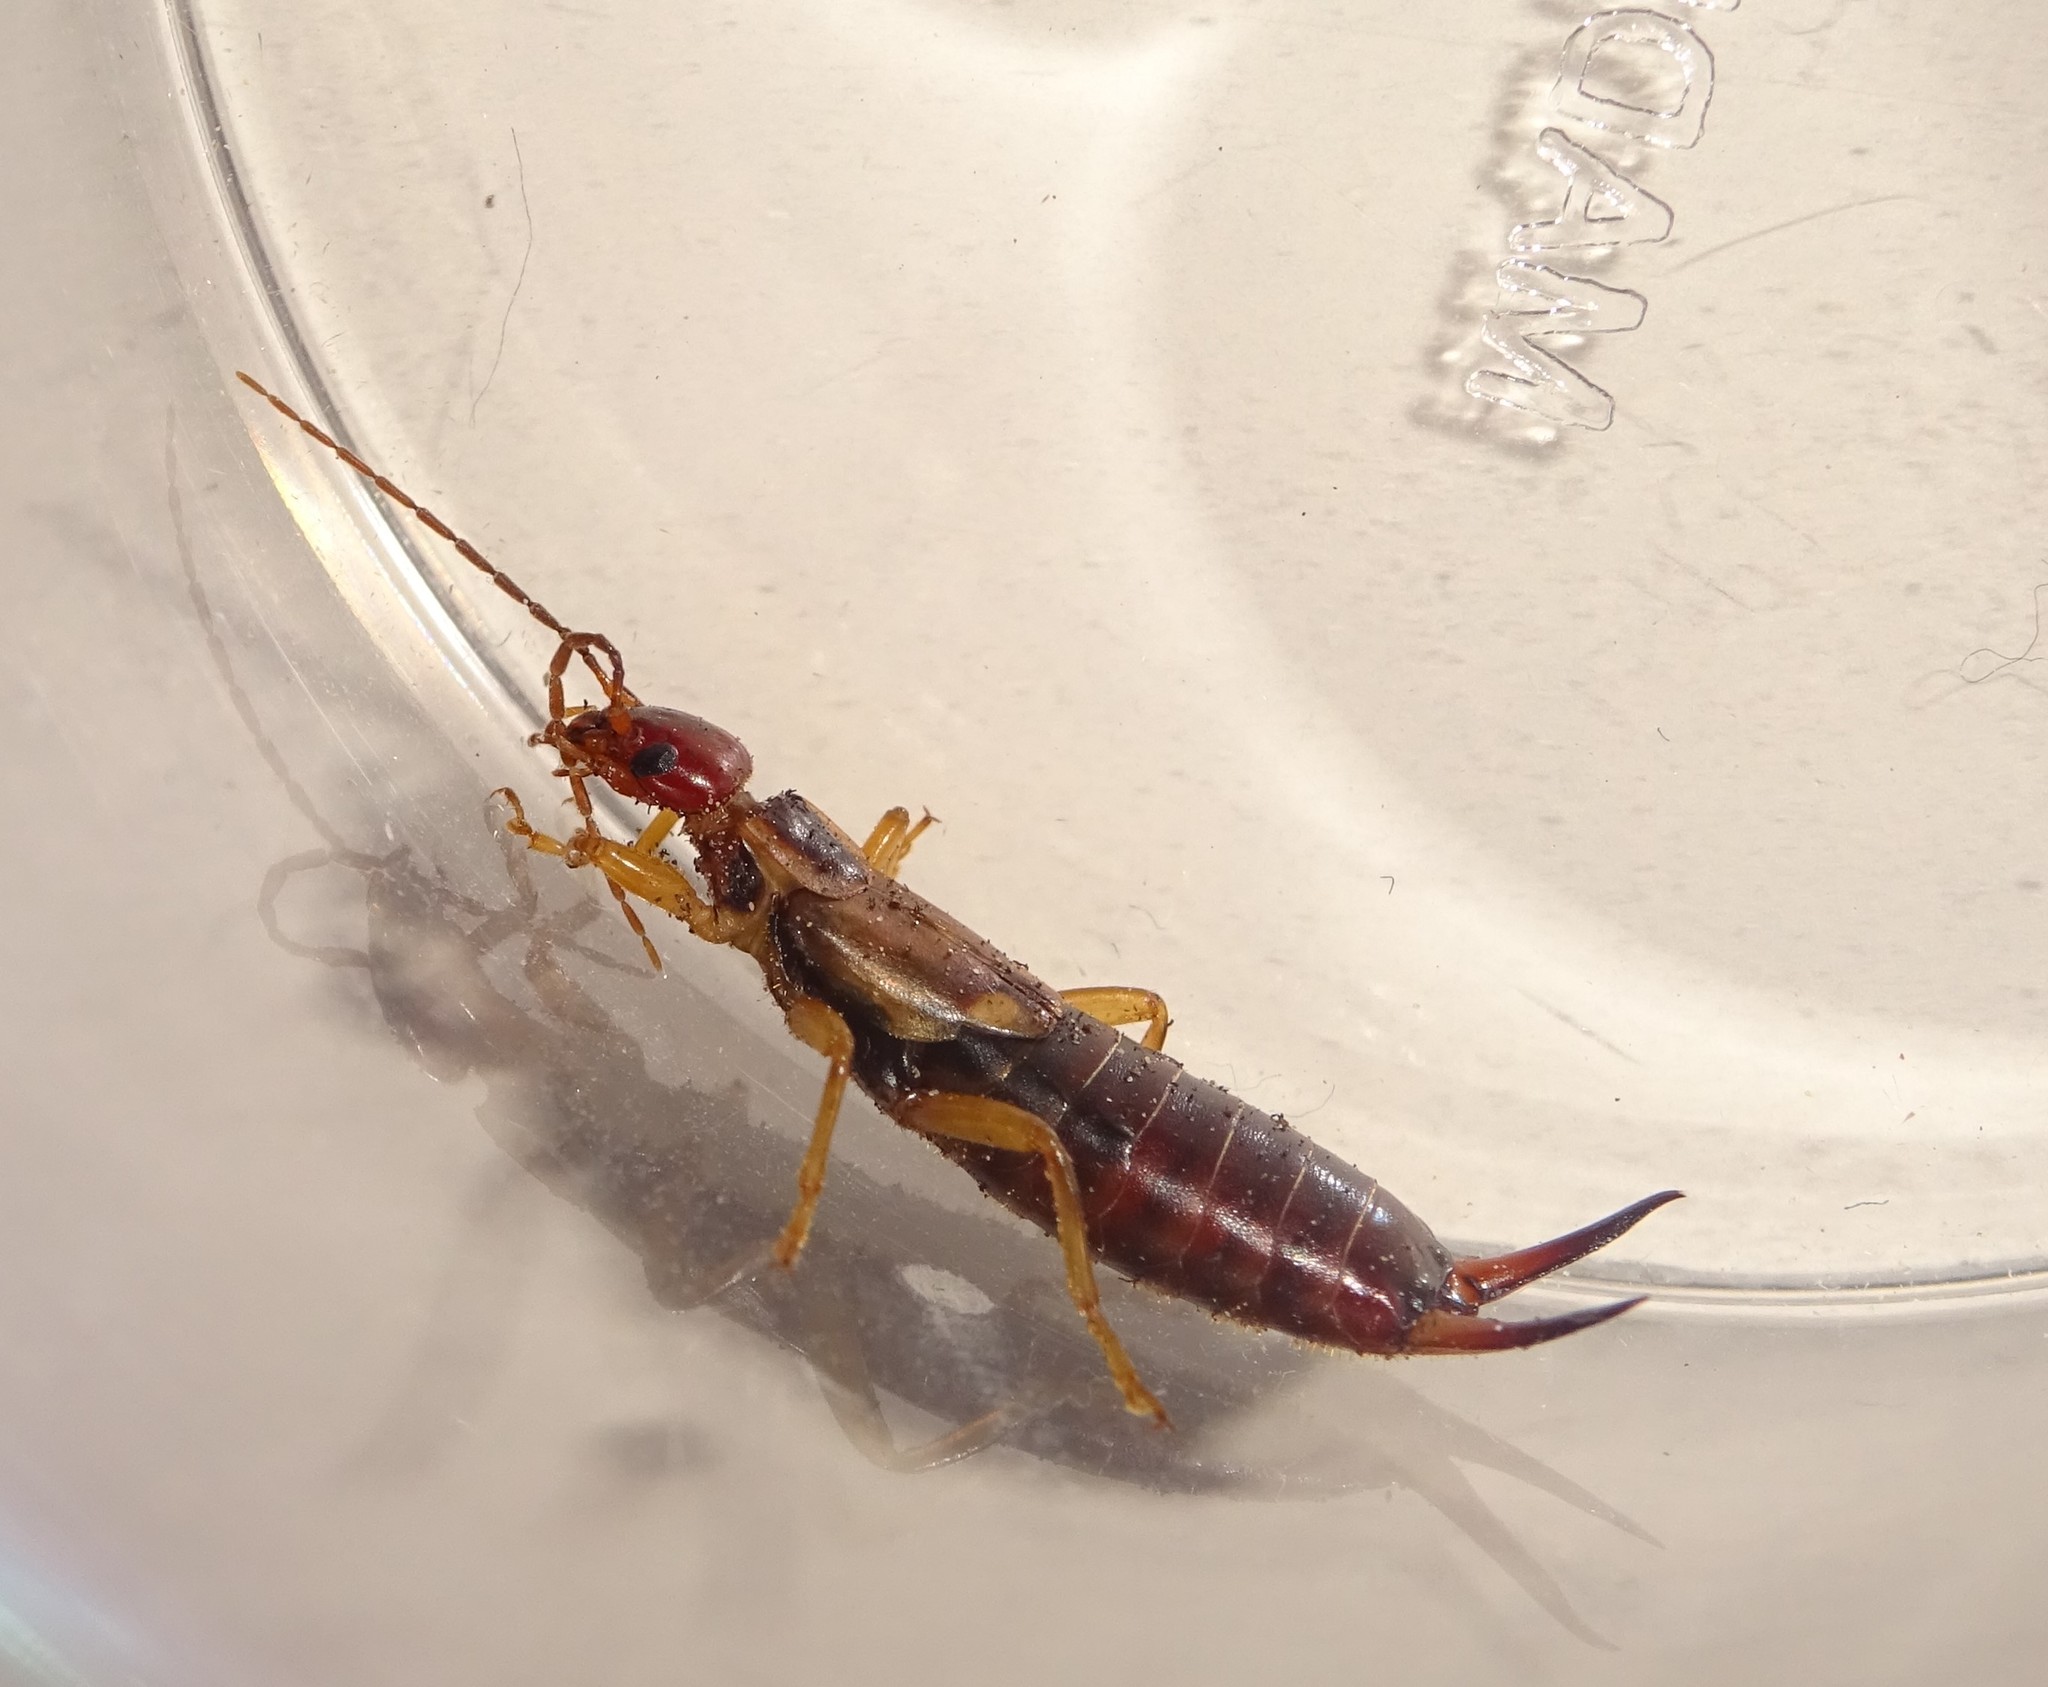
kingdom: Animalia
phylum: Arthropoda
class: Insecta
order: Dermaptera
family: Forficulidae
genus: Forficula
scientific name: Forficula
